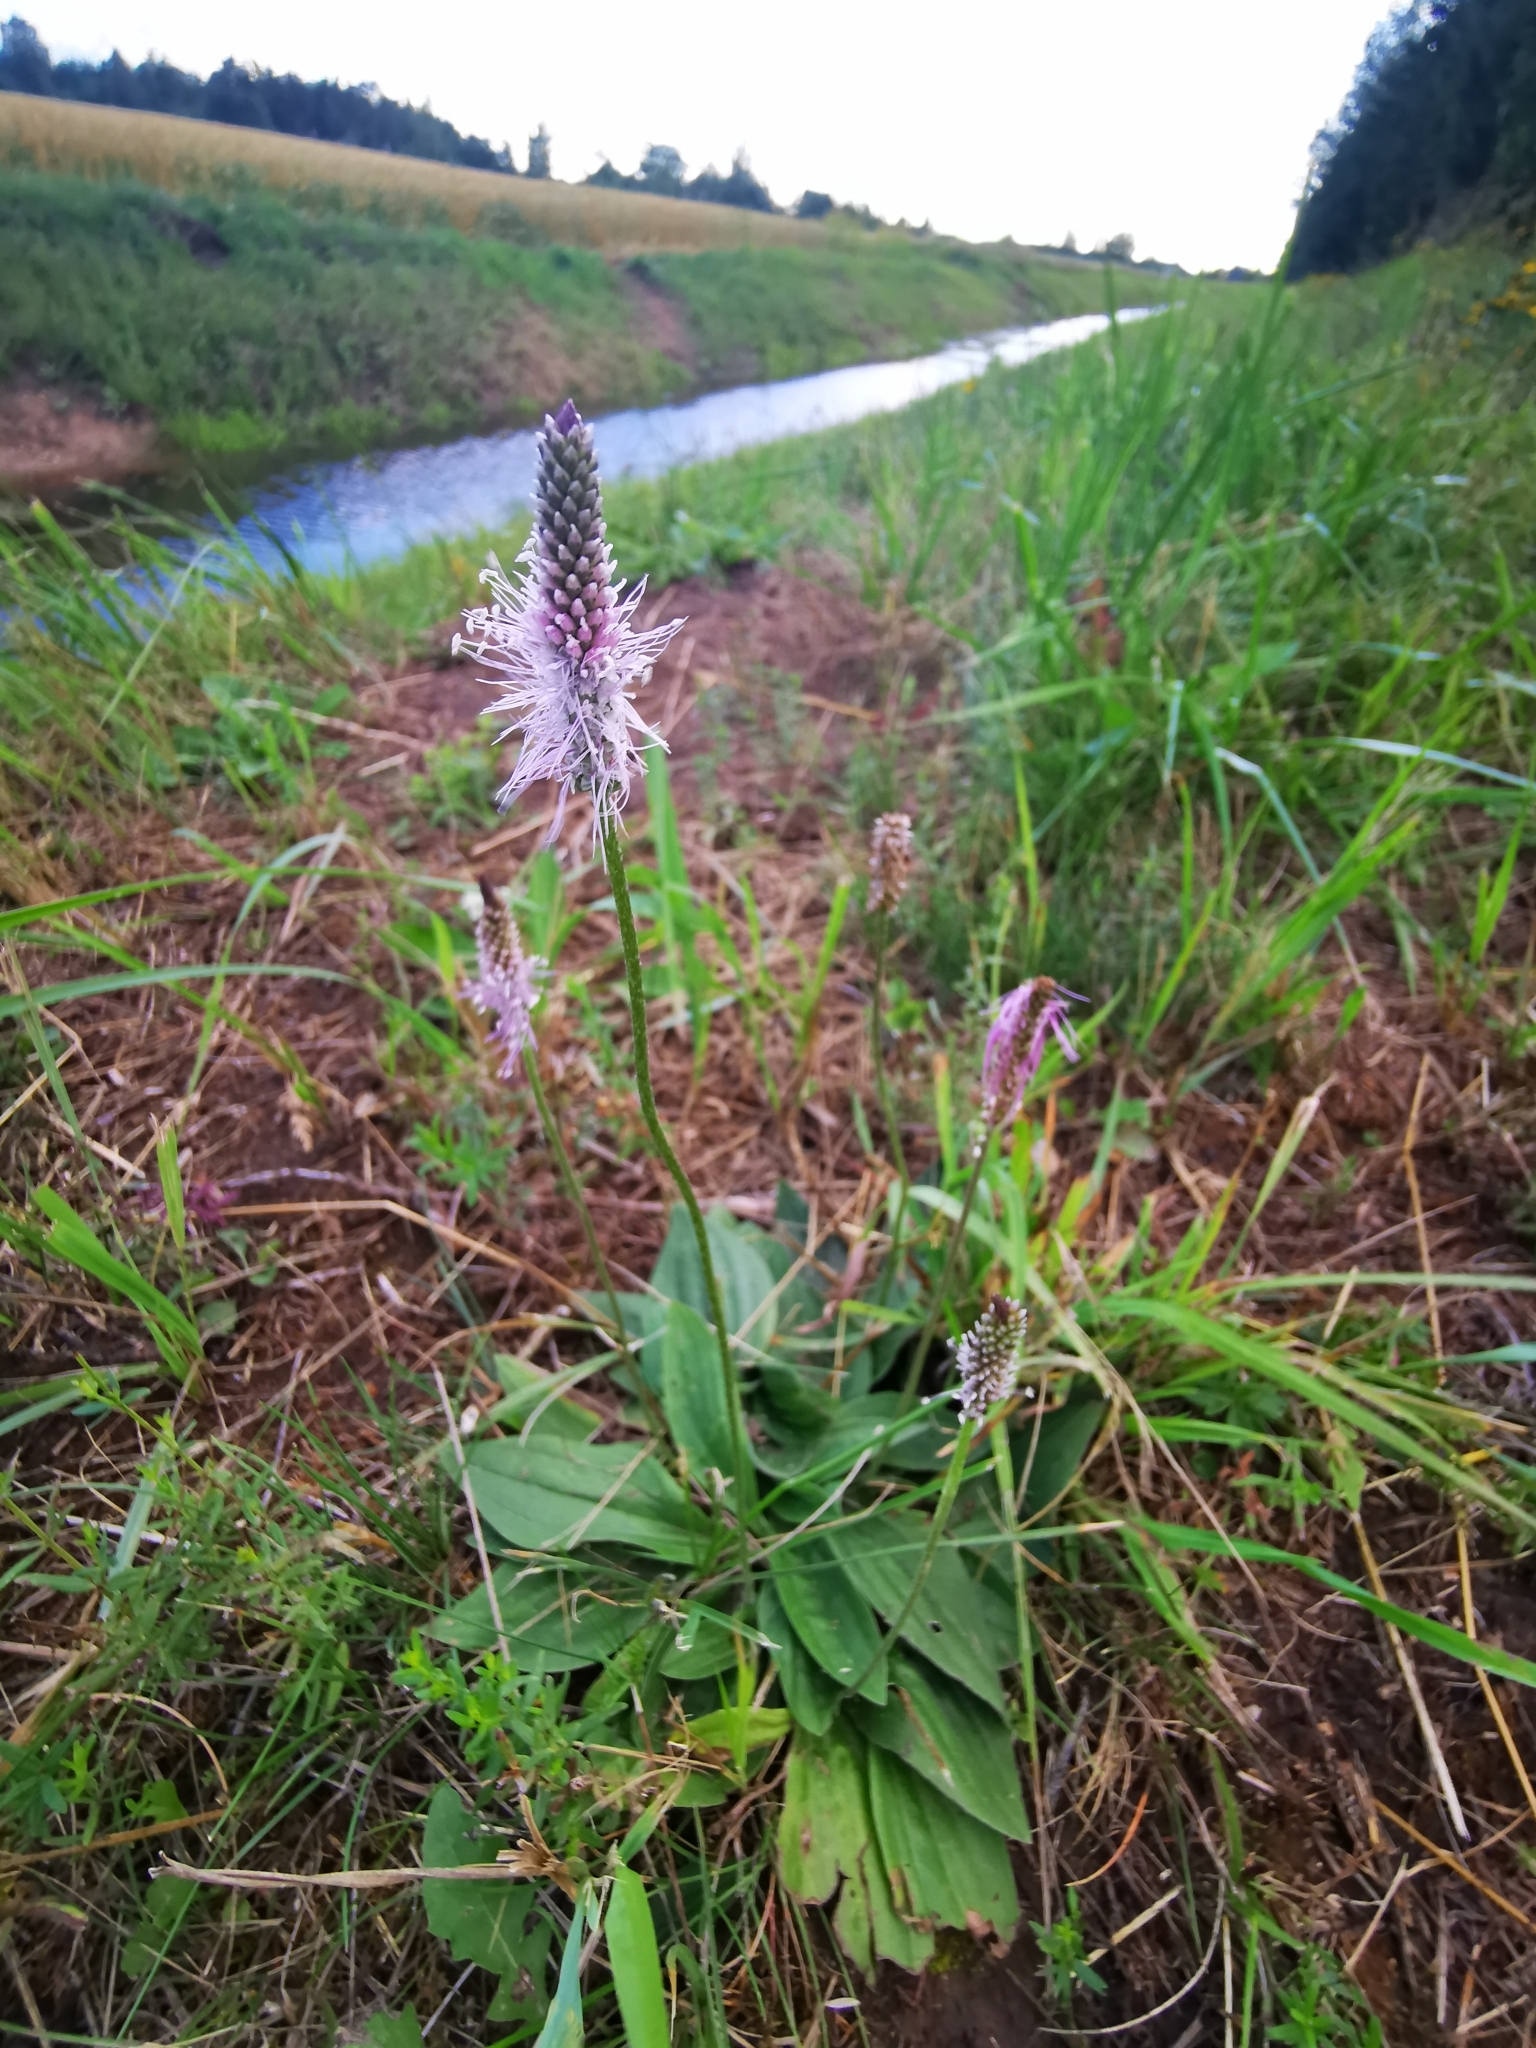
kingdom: Plantae
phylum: Tracheophyta
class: Magnoliopsida
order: Lamiales
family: Plantaginaceae
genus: Plantago
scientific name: Plantago media
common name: Hoary plantain
